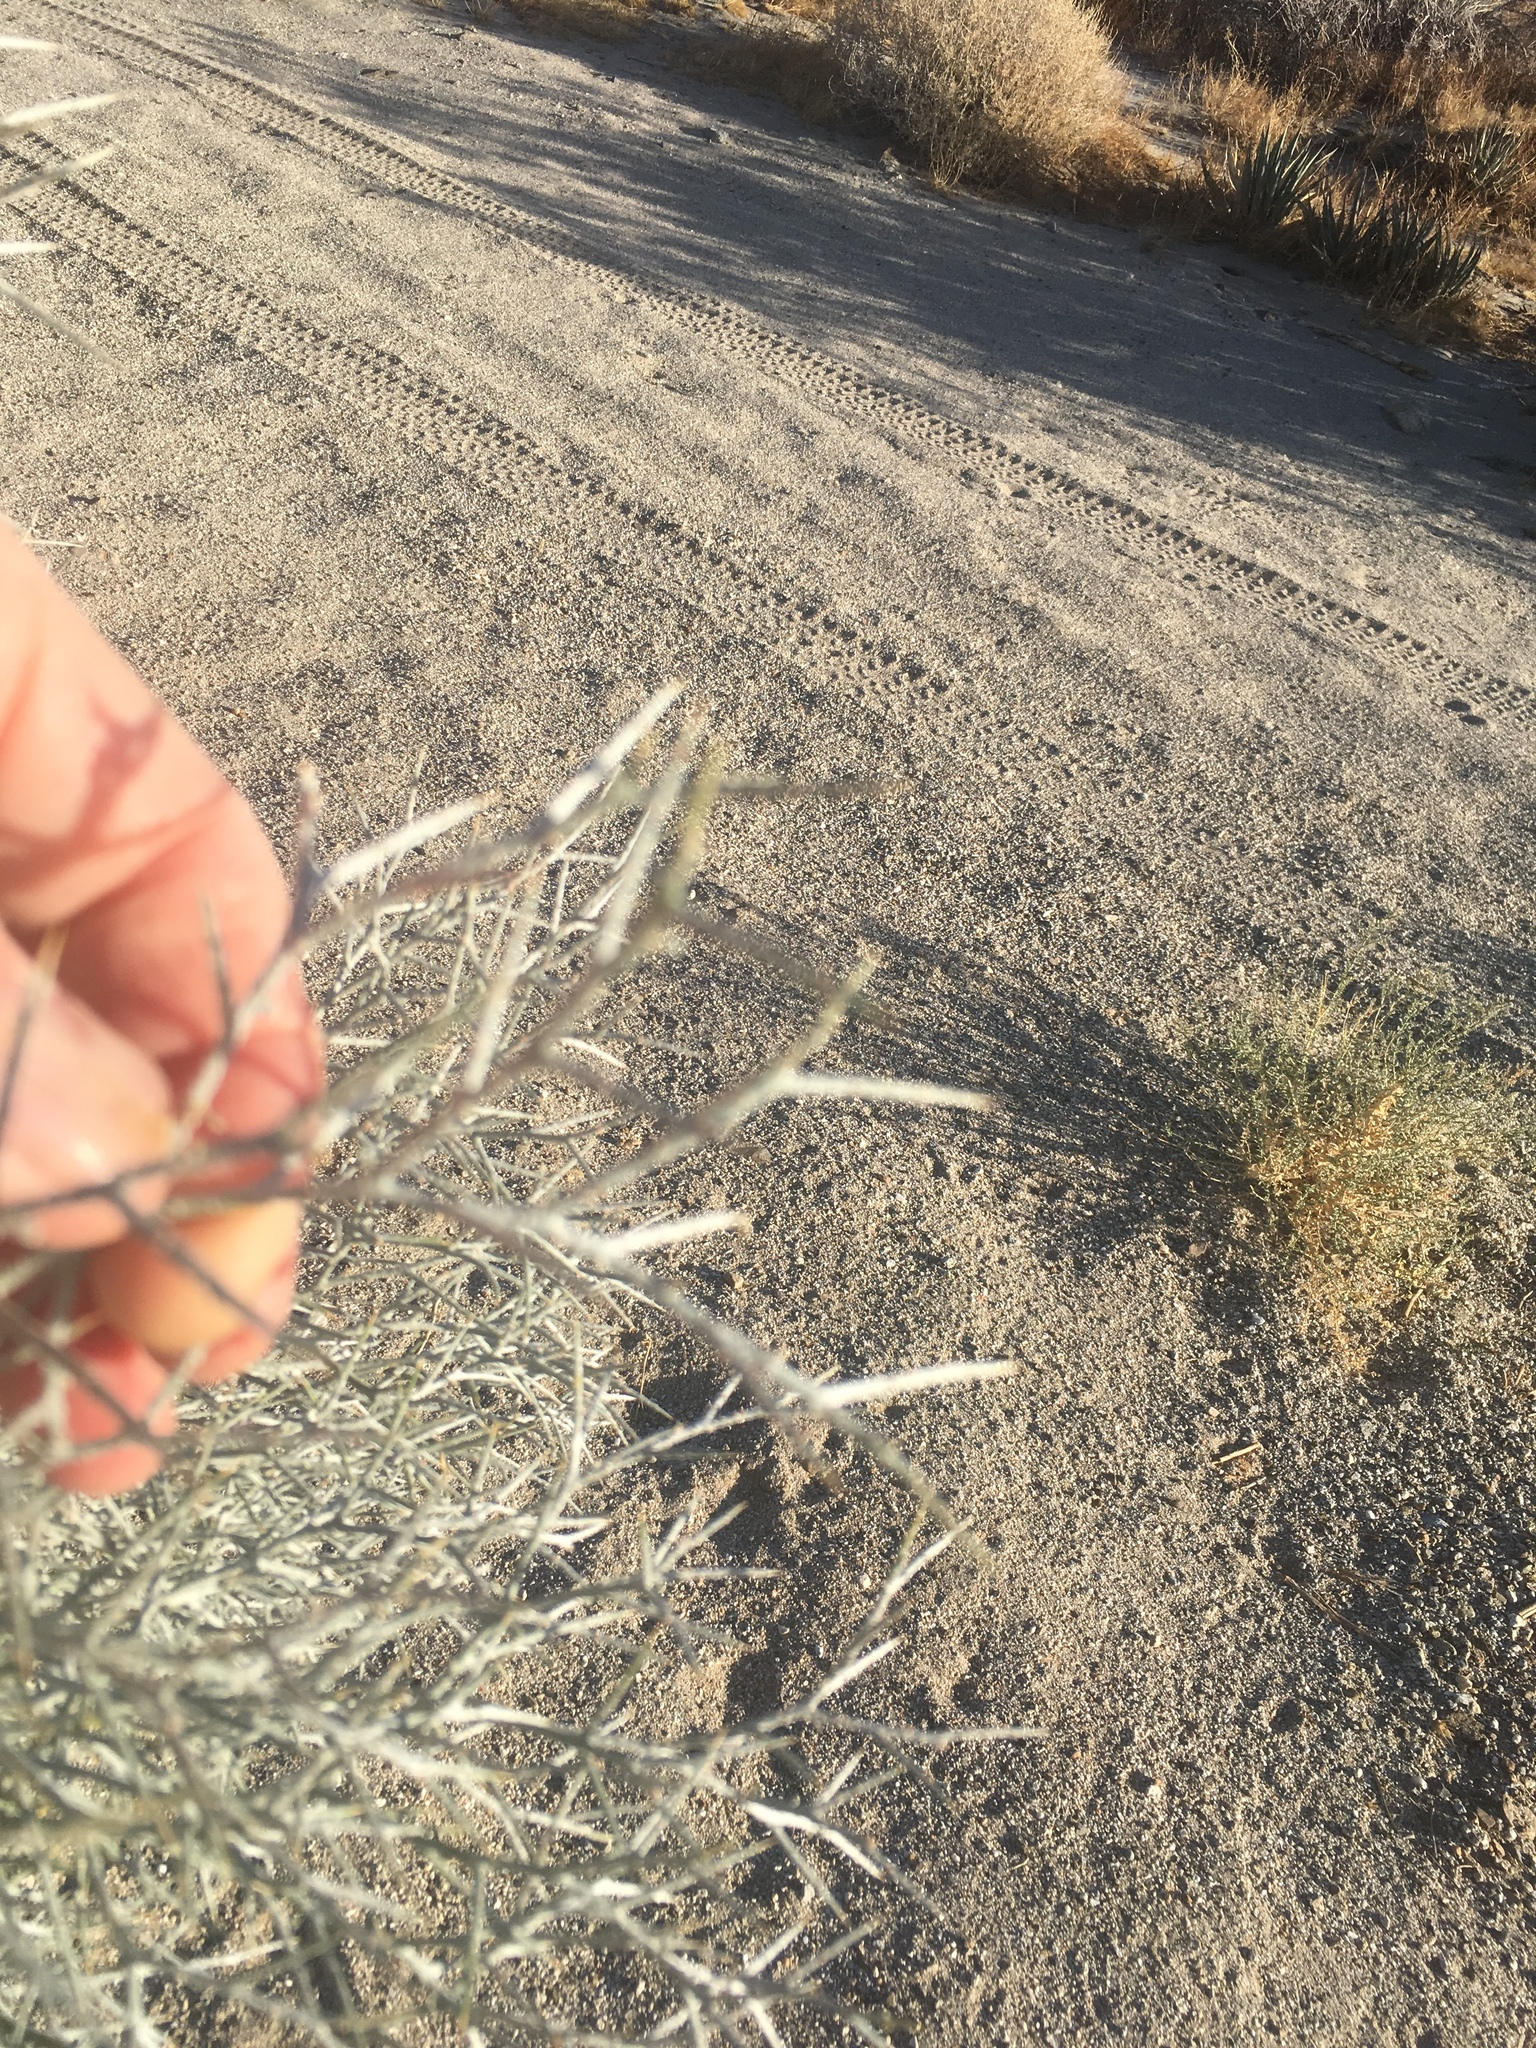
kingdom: Plantae
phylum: Tracheophyta
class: Magnoliopsida
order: Fabales
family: Fabaceae
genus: Psorothamnus
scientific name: Psorothamnus spinosus
